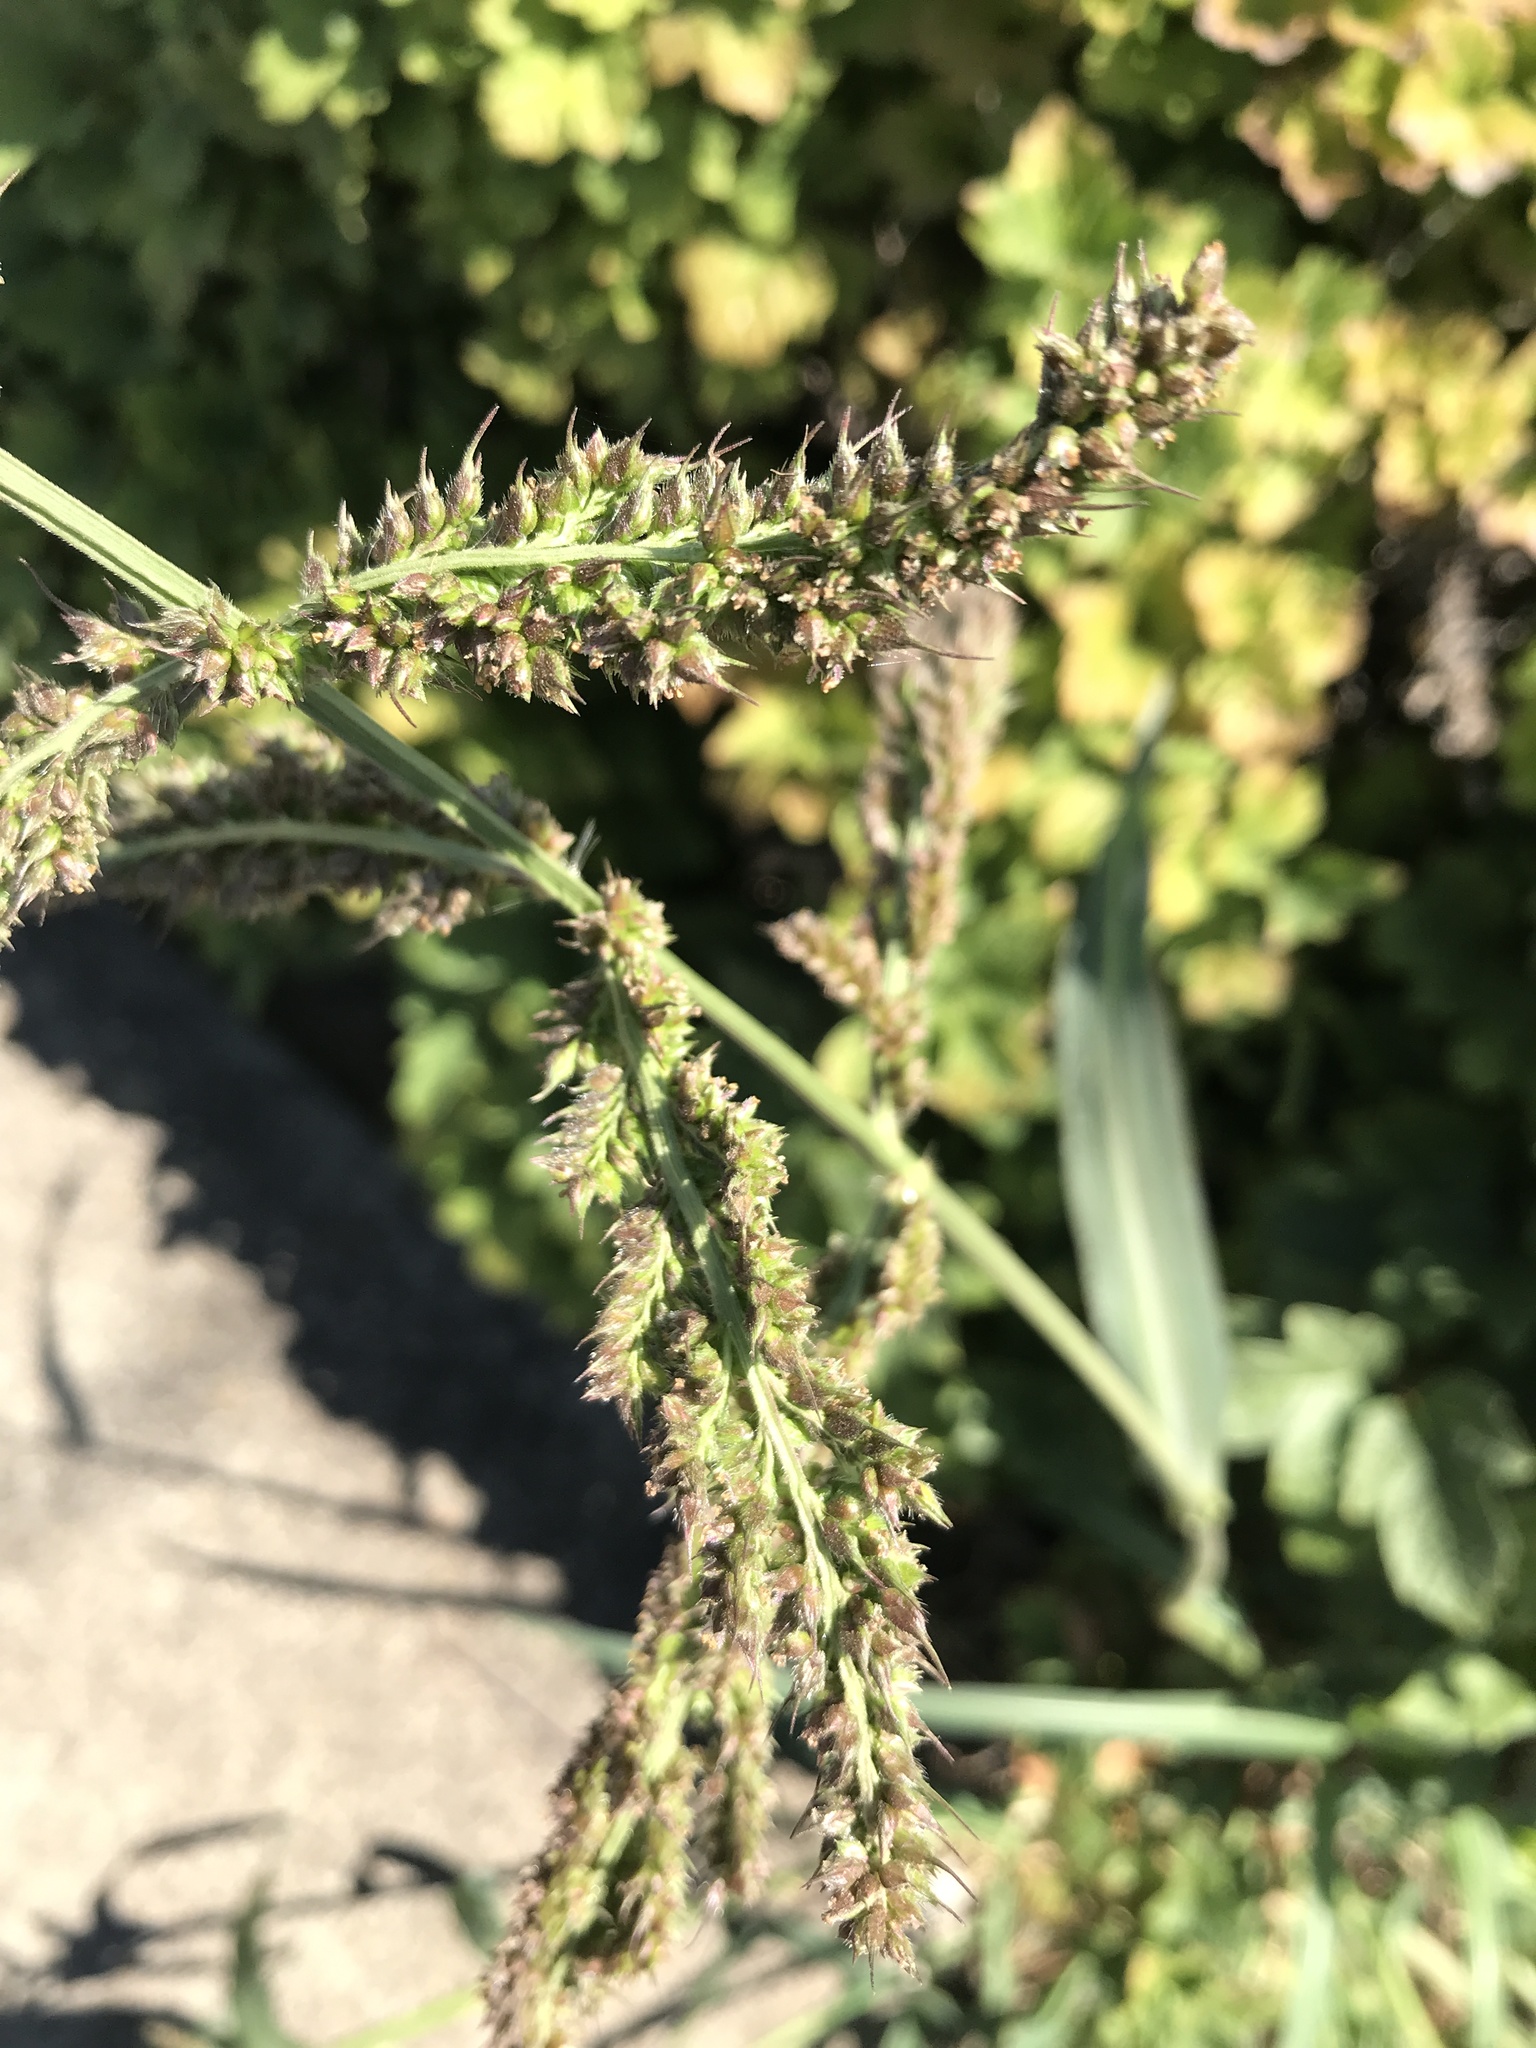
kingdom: Plantae
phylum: Tracheophyta
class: Liliopsida
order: Poales
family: Poaceae
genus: Echinochloa
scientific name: Echinochloa crus-galli
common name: Cockspur
